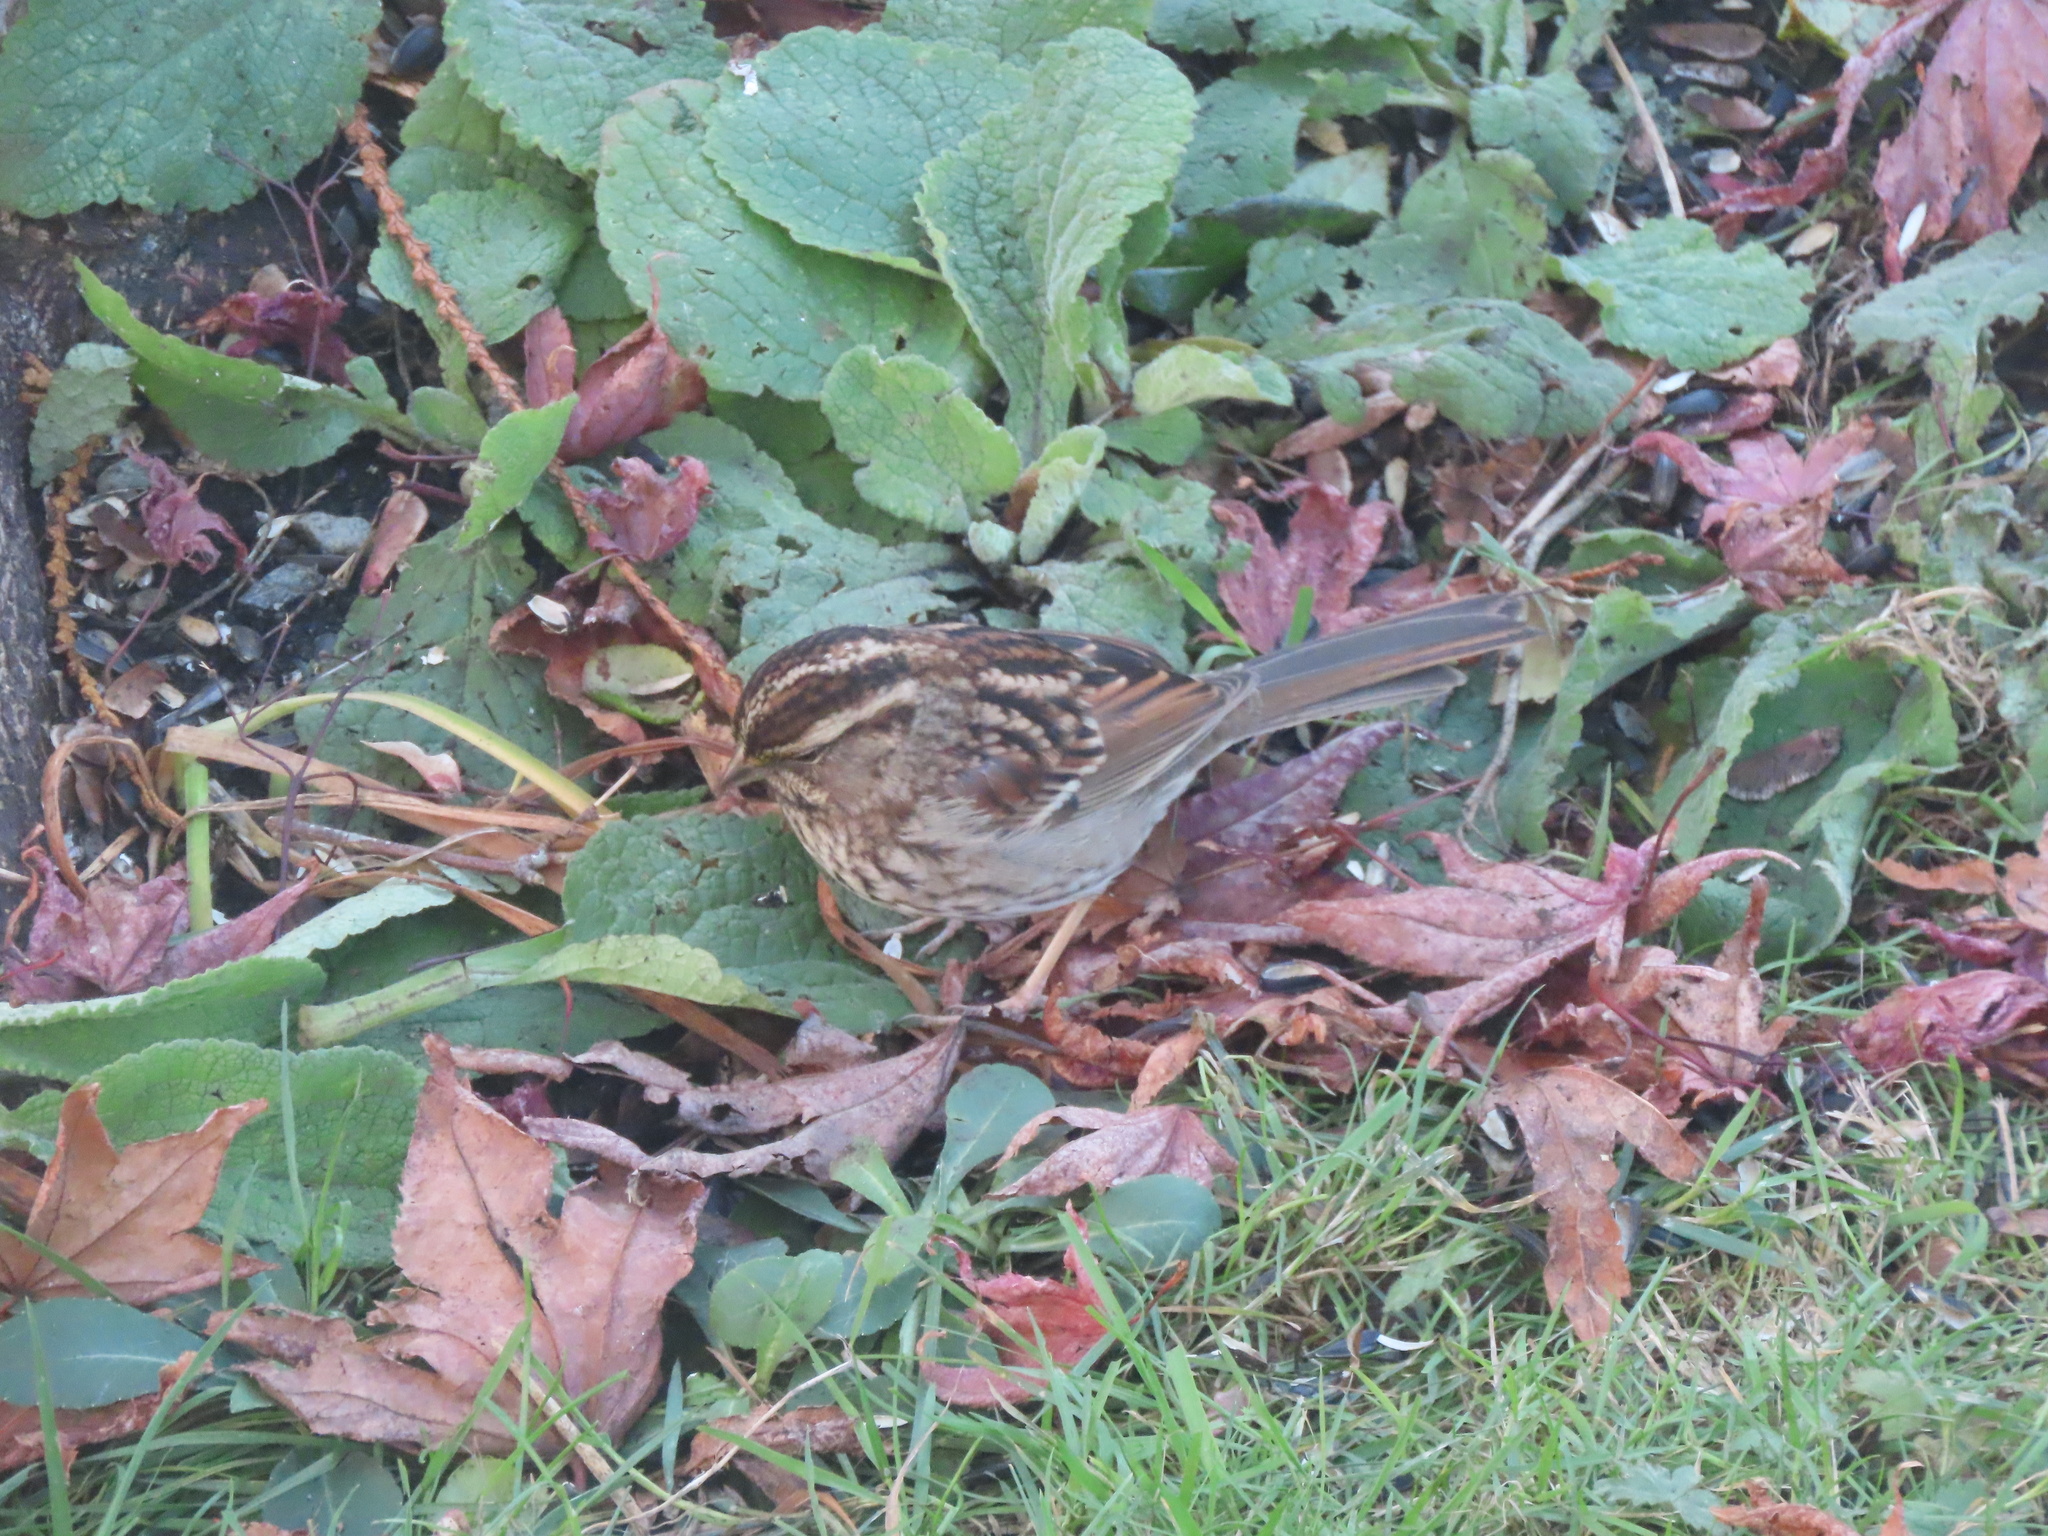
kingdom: Animalia
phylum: Chordata
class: Aves
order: Passeriformes
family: Passerellidae
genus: Zonotrichia
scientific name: Zonotrichia albicollis
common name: White-throated sparrow
